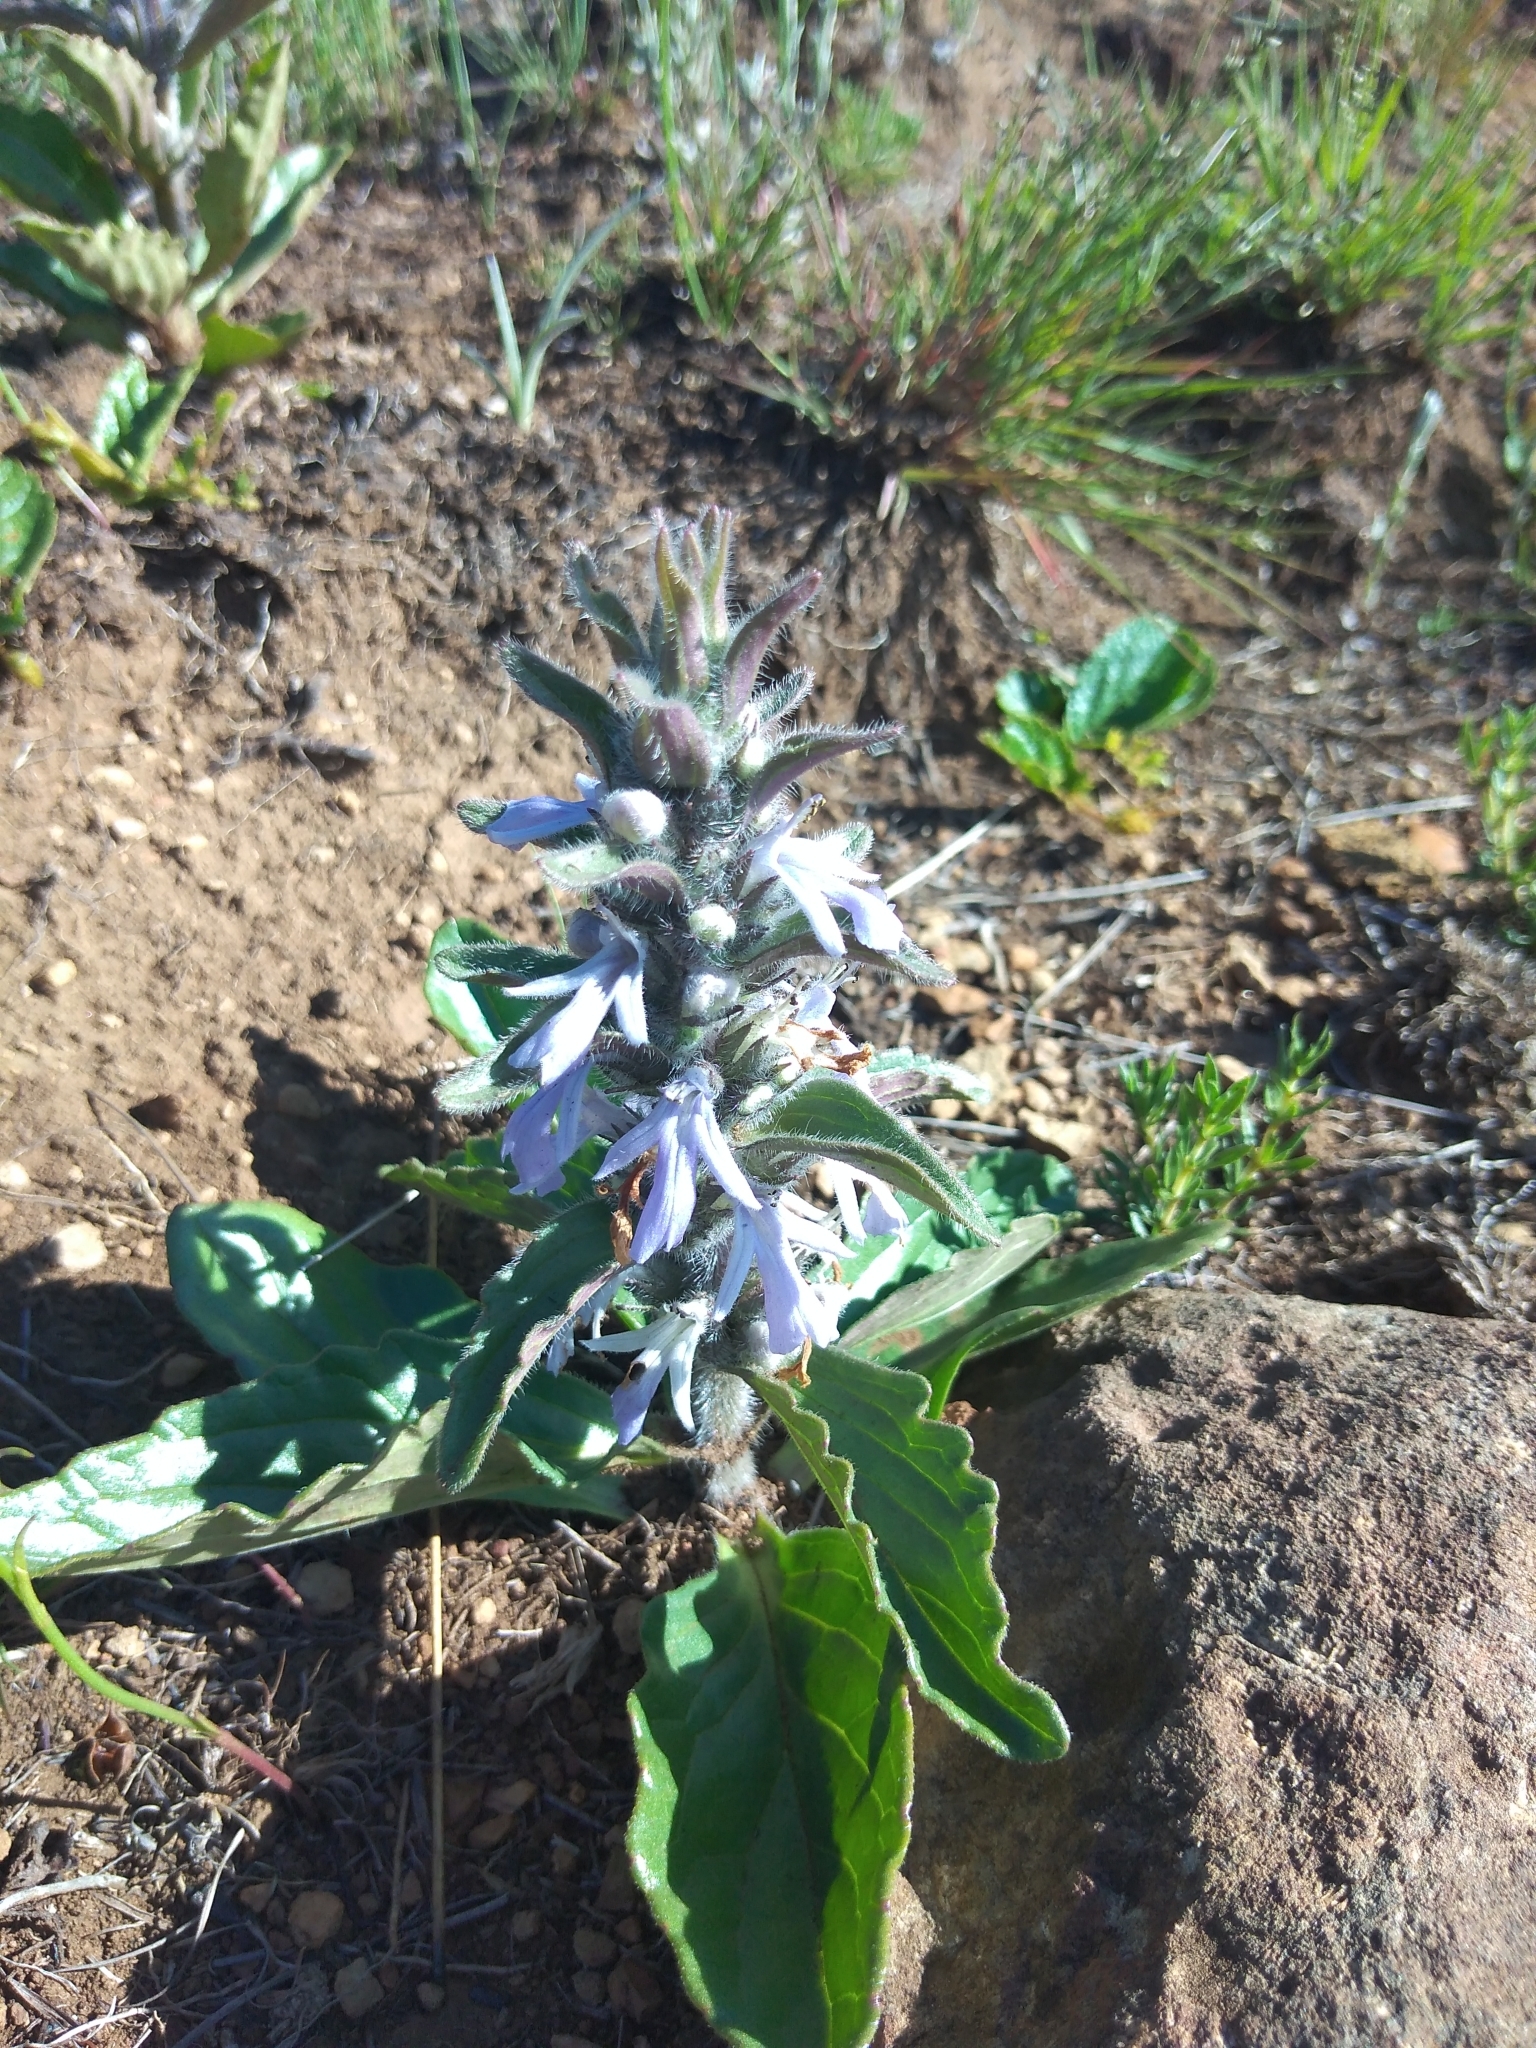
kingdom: Plantae
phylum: Tracheophyta
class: Magnoliopsida
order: Lamiales
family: Lamiaceae
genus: Ajuga
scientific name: Ajuga ophrydis
